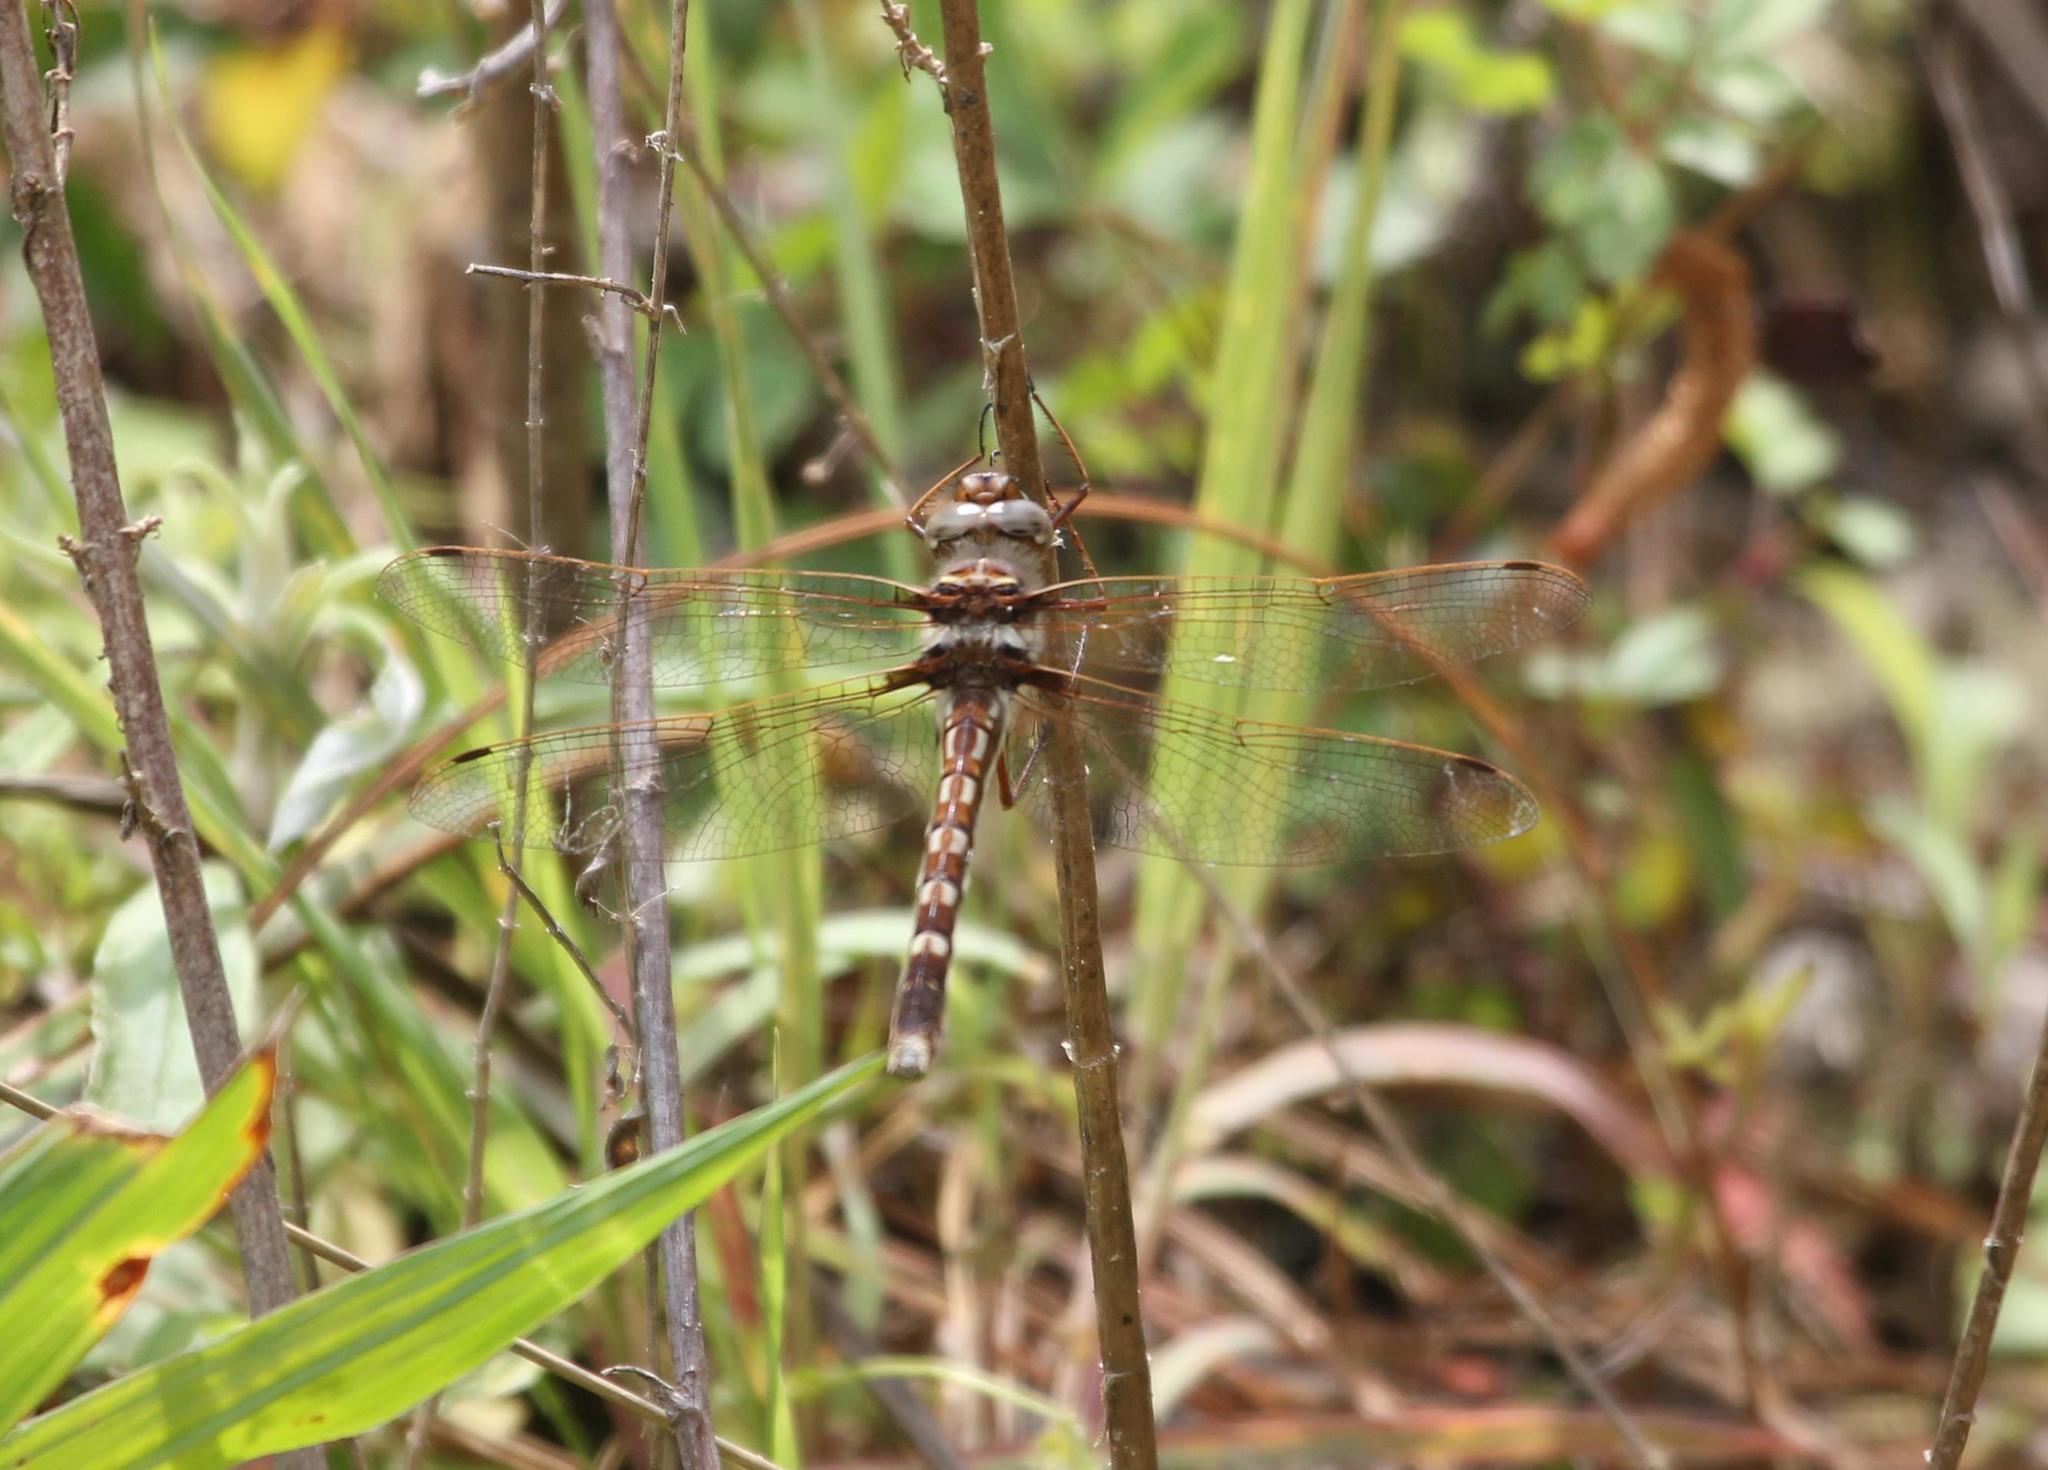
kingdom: Animalia
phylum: Arthropoda
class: Insecta
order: Odonata
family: Macromiidae
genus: Didymops
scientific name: Didymops transversa
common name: Stream cruiser
